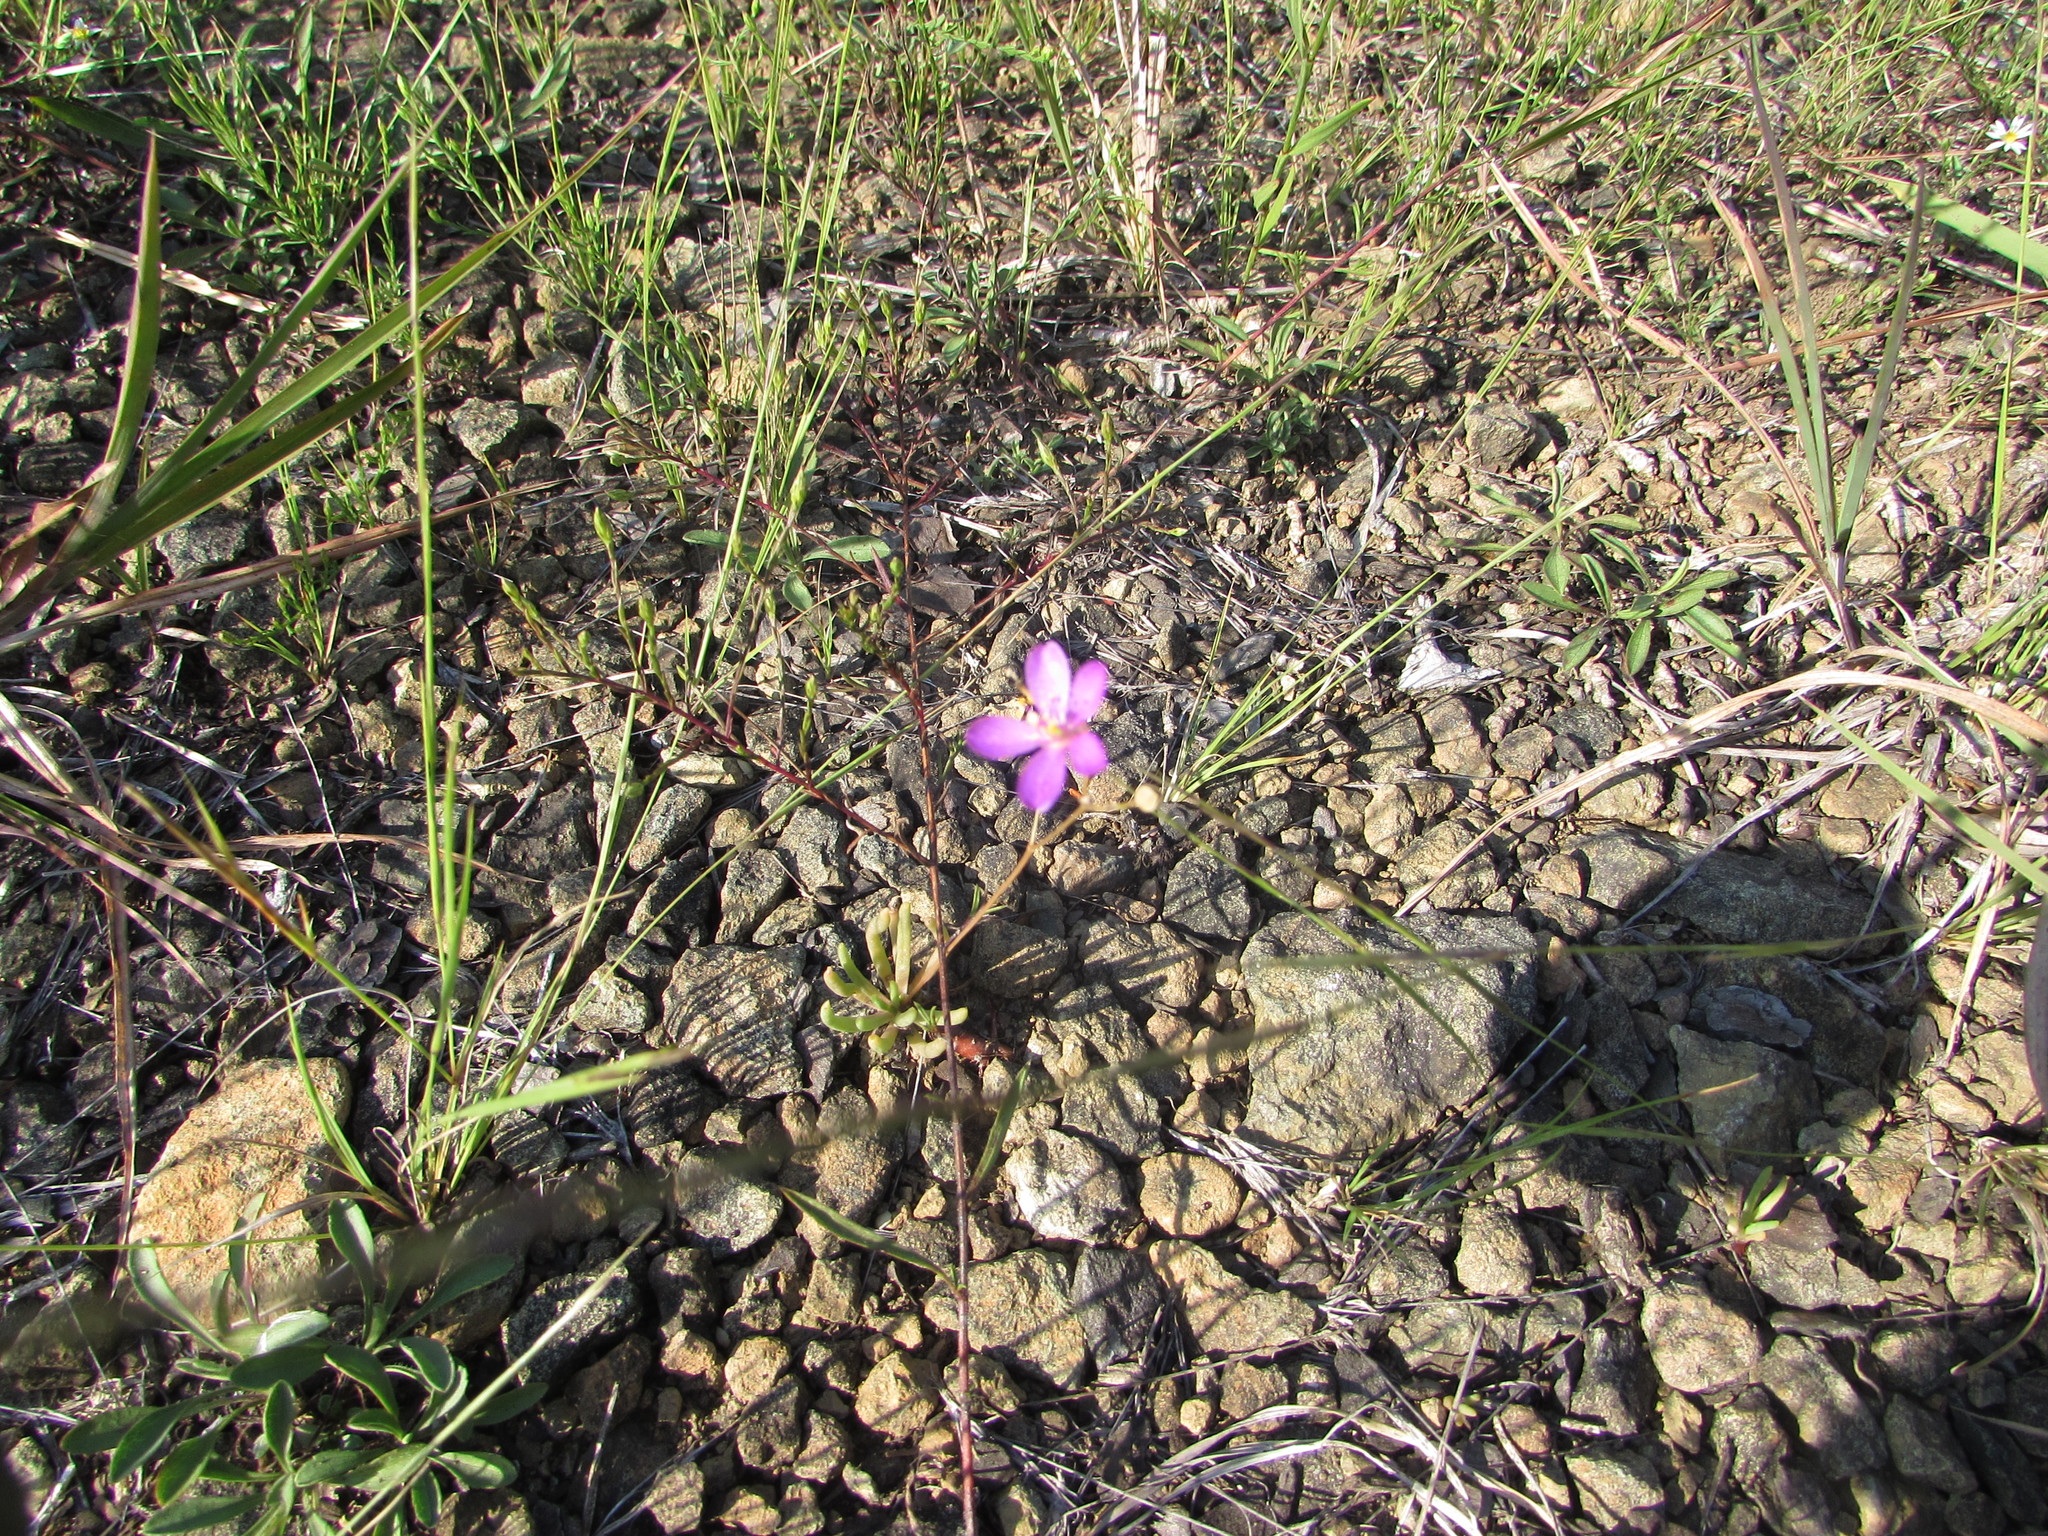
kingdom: Plantae
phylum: Tracheophyta
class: Magnoliopsida
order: Caryophyllales
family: Montiaceae
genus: Phemeranthus
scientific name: Phemeranthus teretifolius
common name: Quill fameflower
